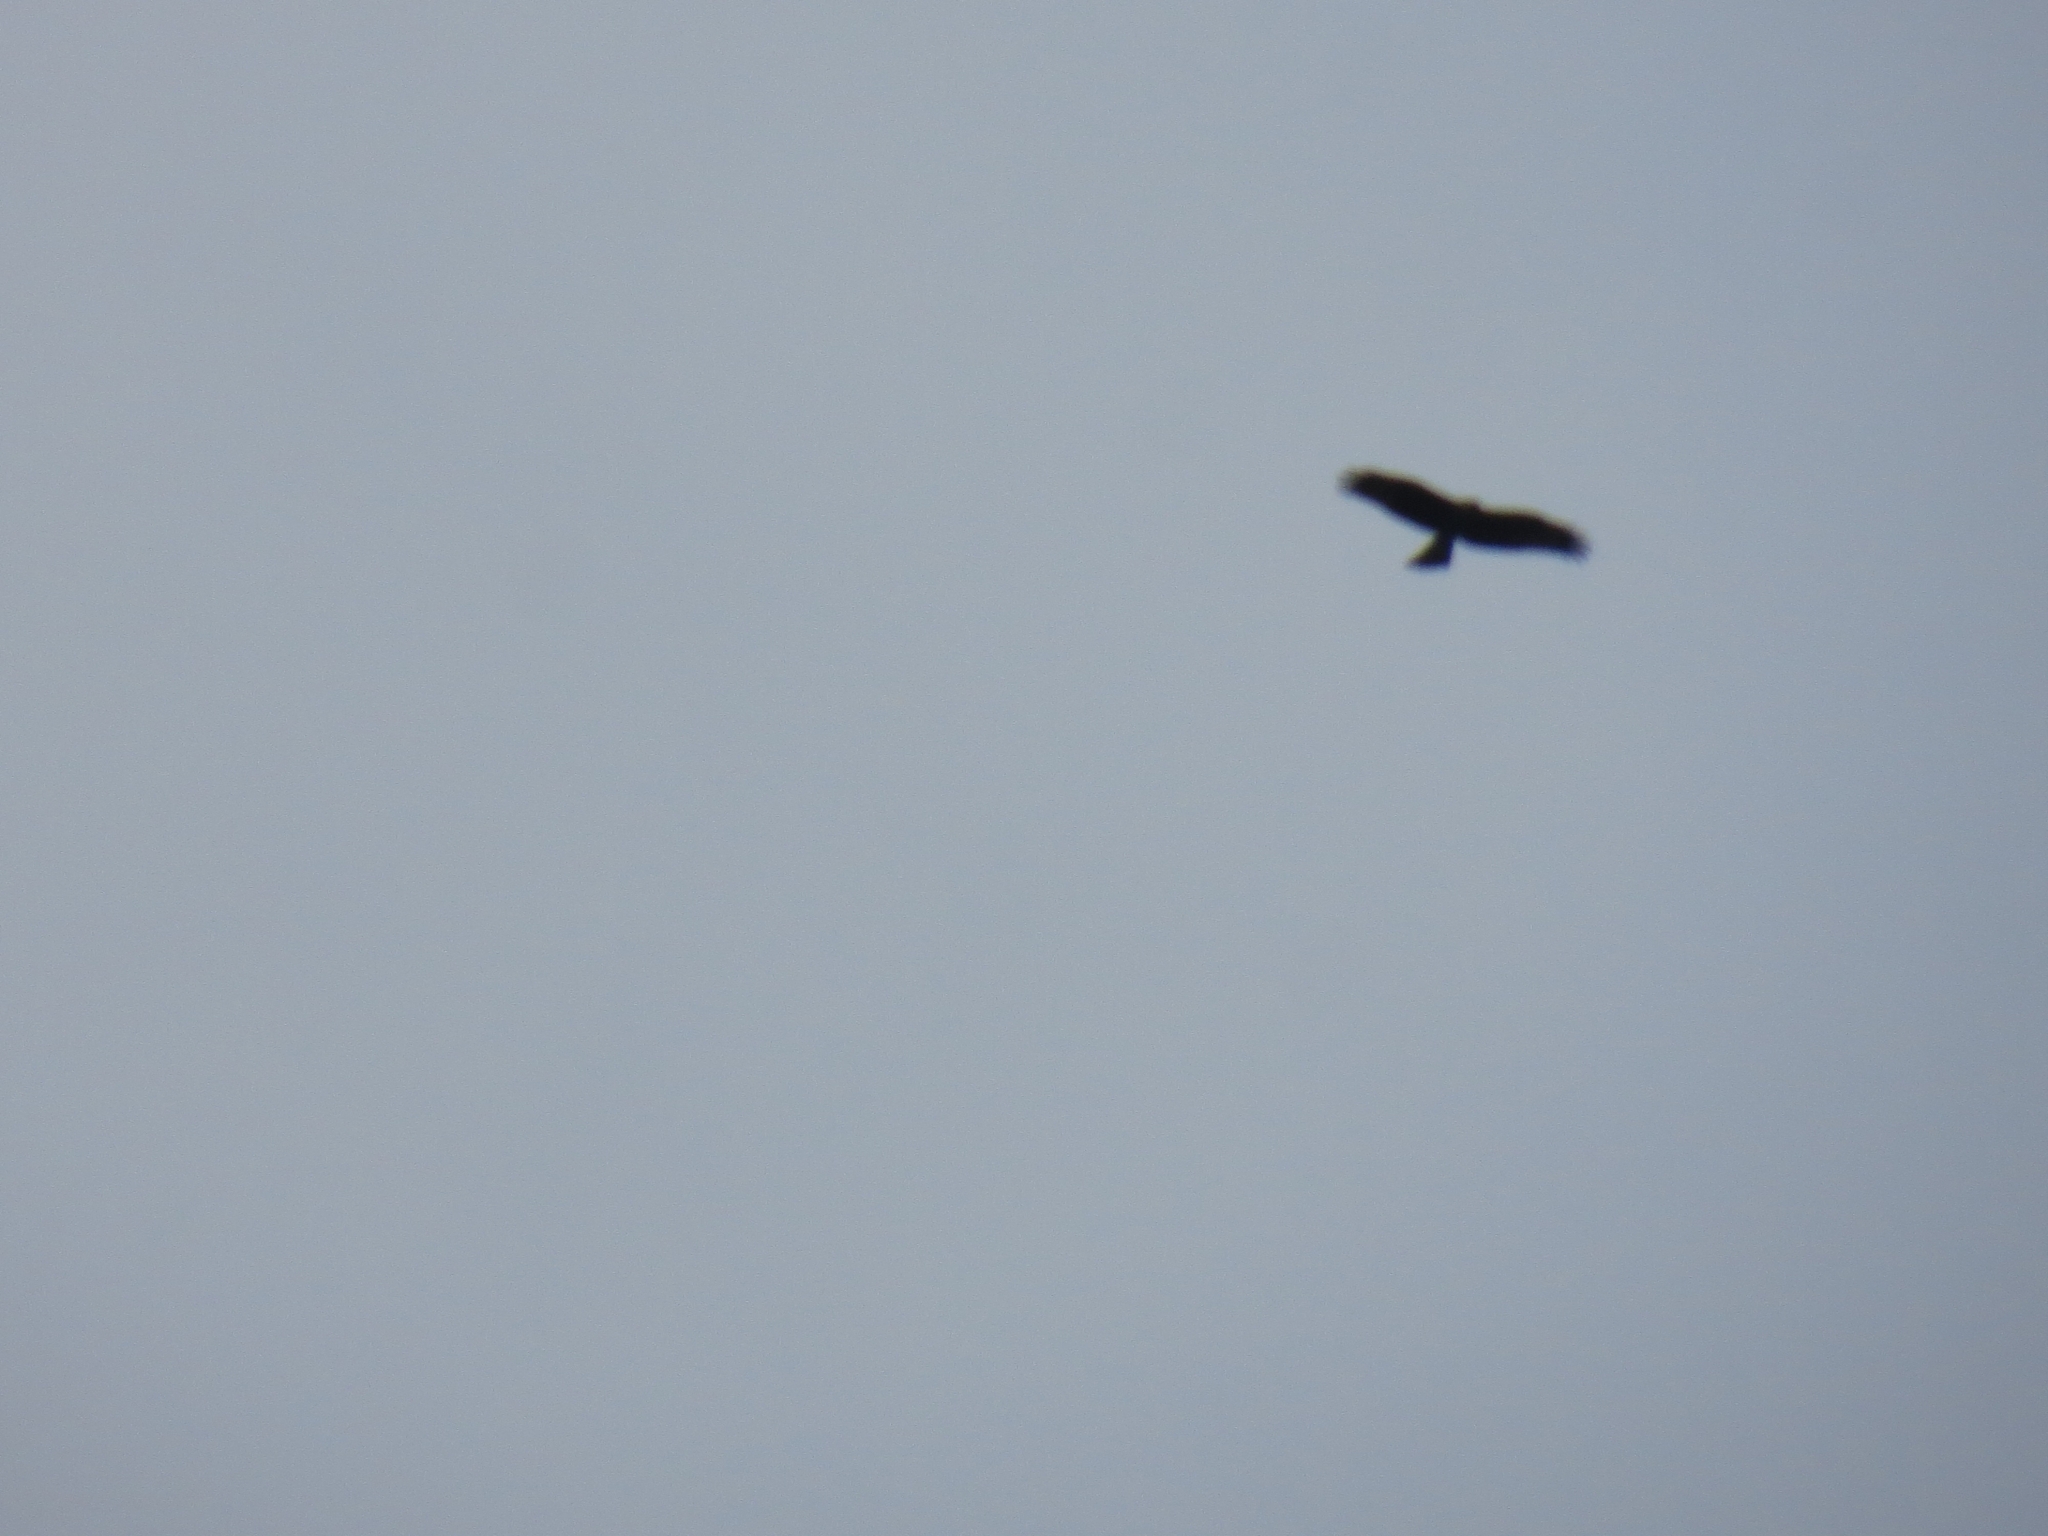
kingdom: Animalia
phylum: Chordata
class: Aves
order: Accipitriformes
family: Accipitridae
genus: Milvus
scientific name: Milvus migrans
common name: Black kite
